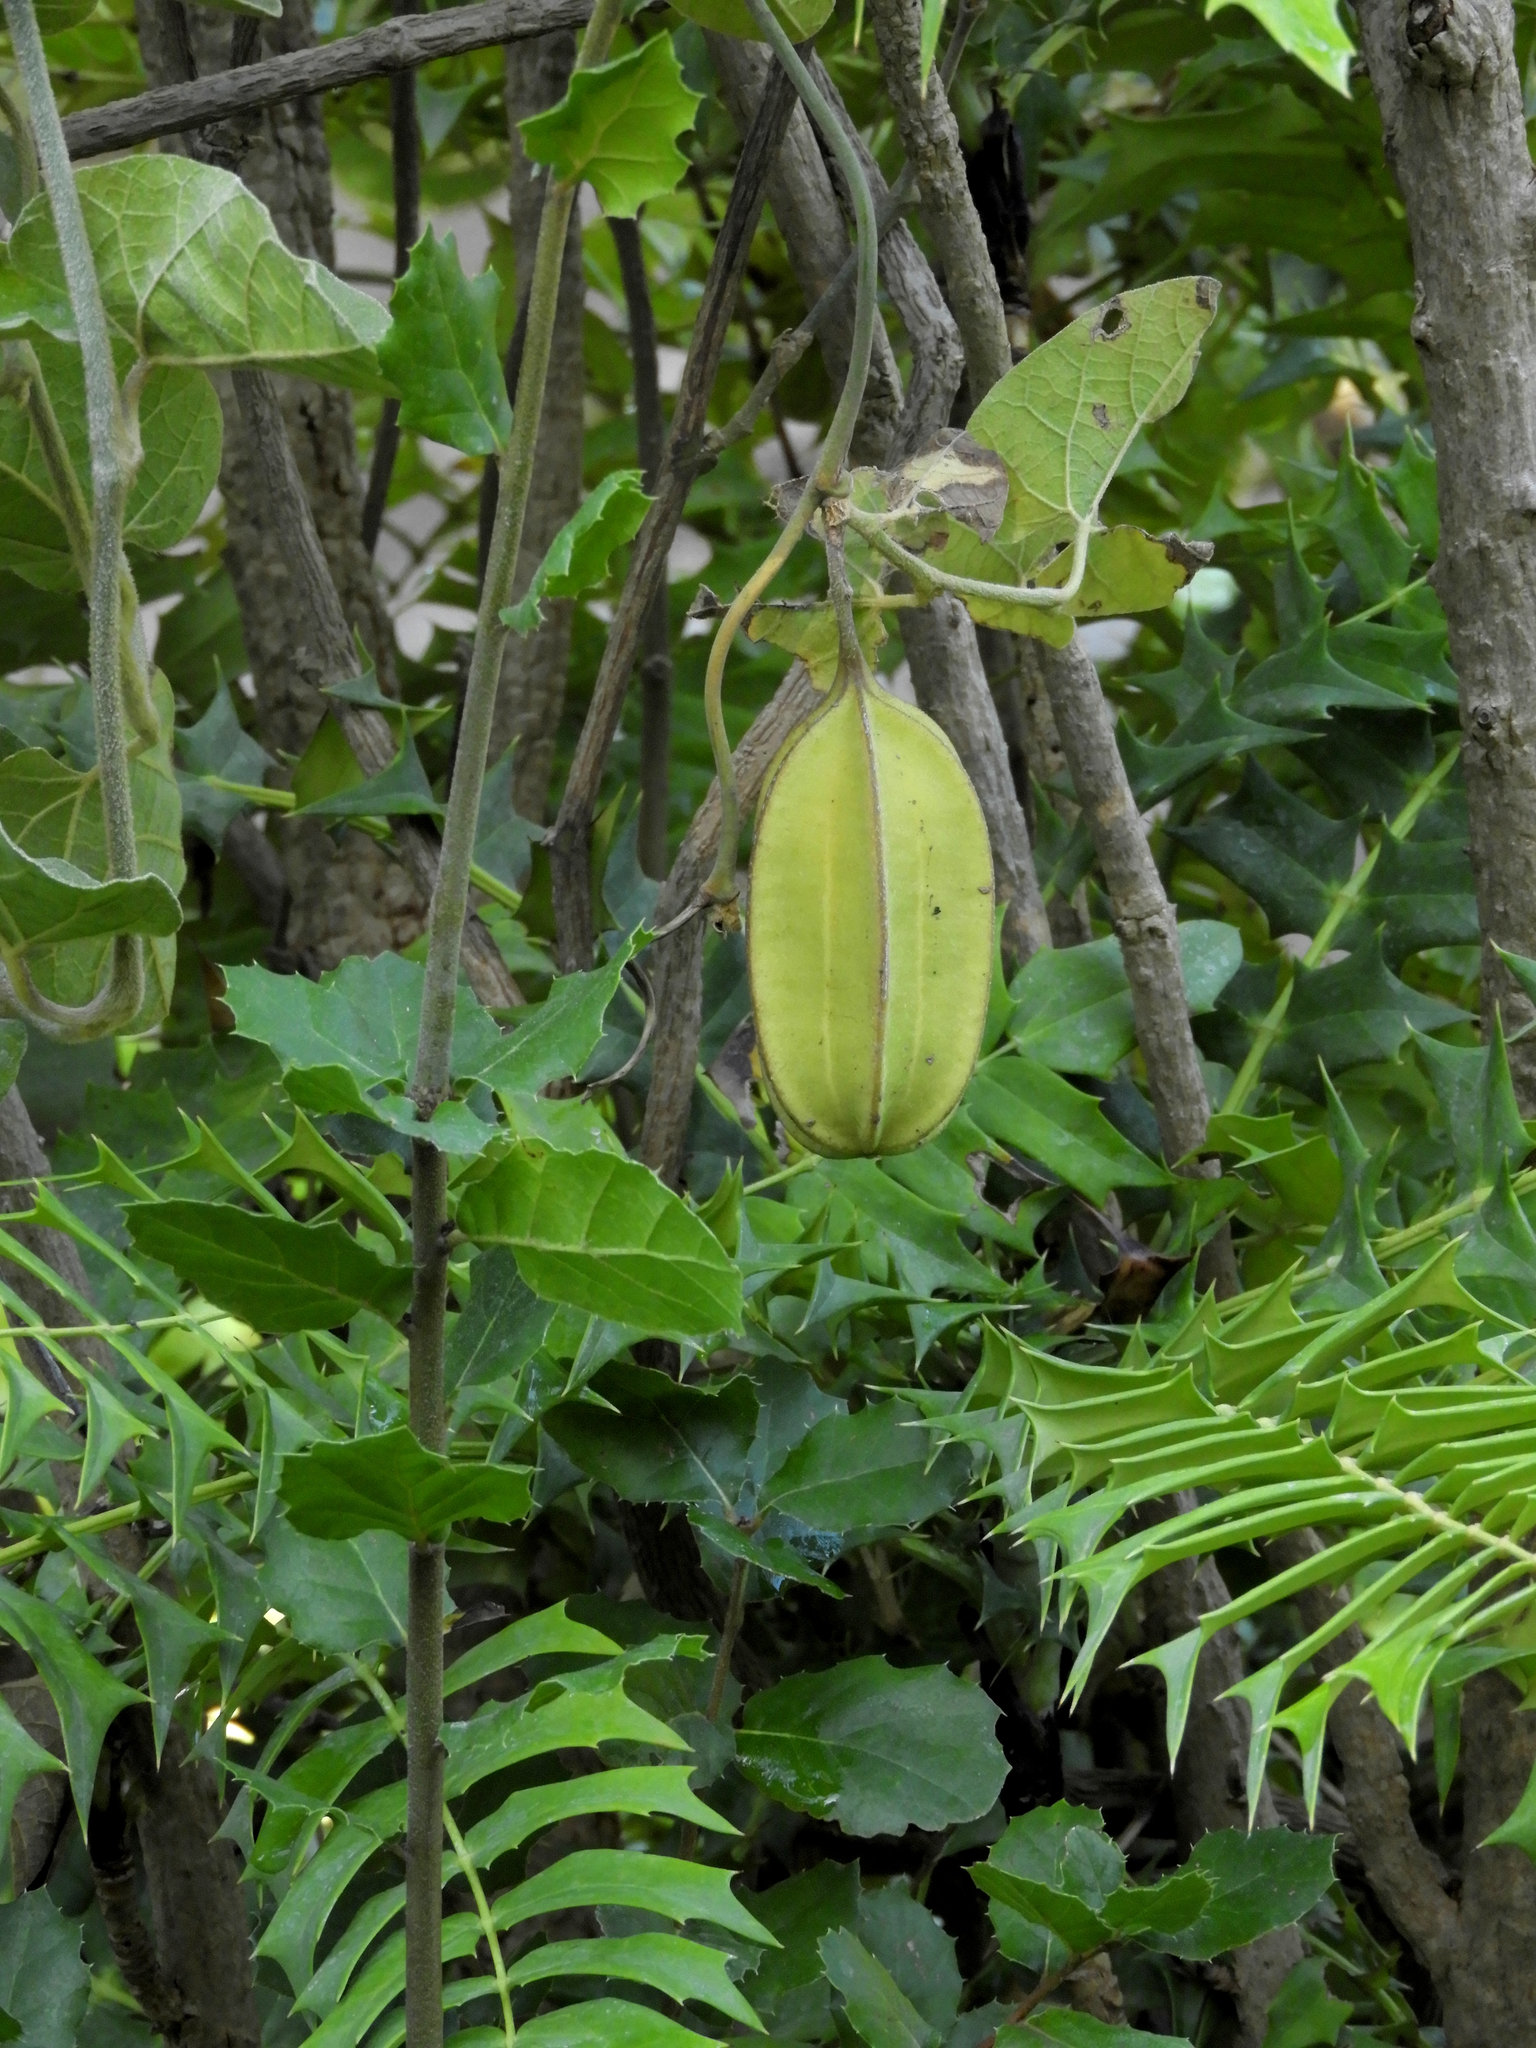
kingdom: Plantae
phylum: Tracheophyta
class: Magnoliopsida
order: Piperales
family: Aristolochiaceae
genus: Isotrema
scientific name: Isotrema californicum
